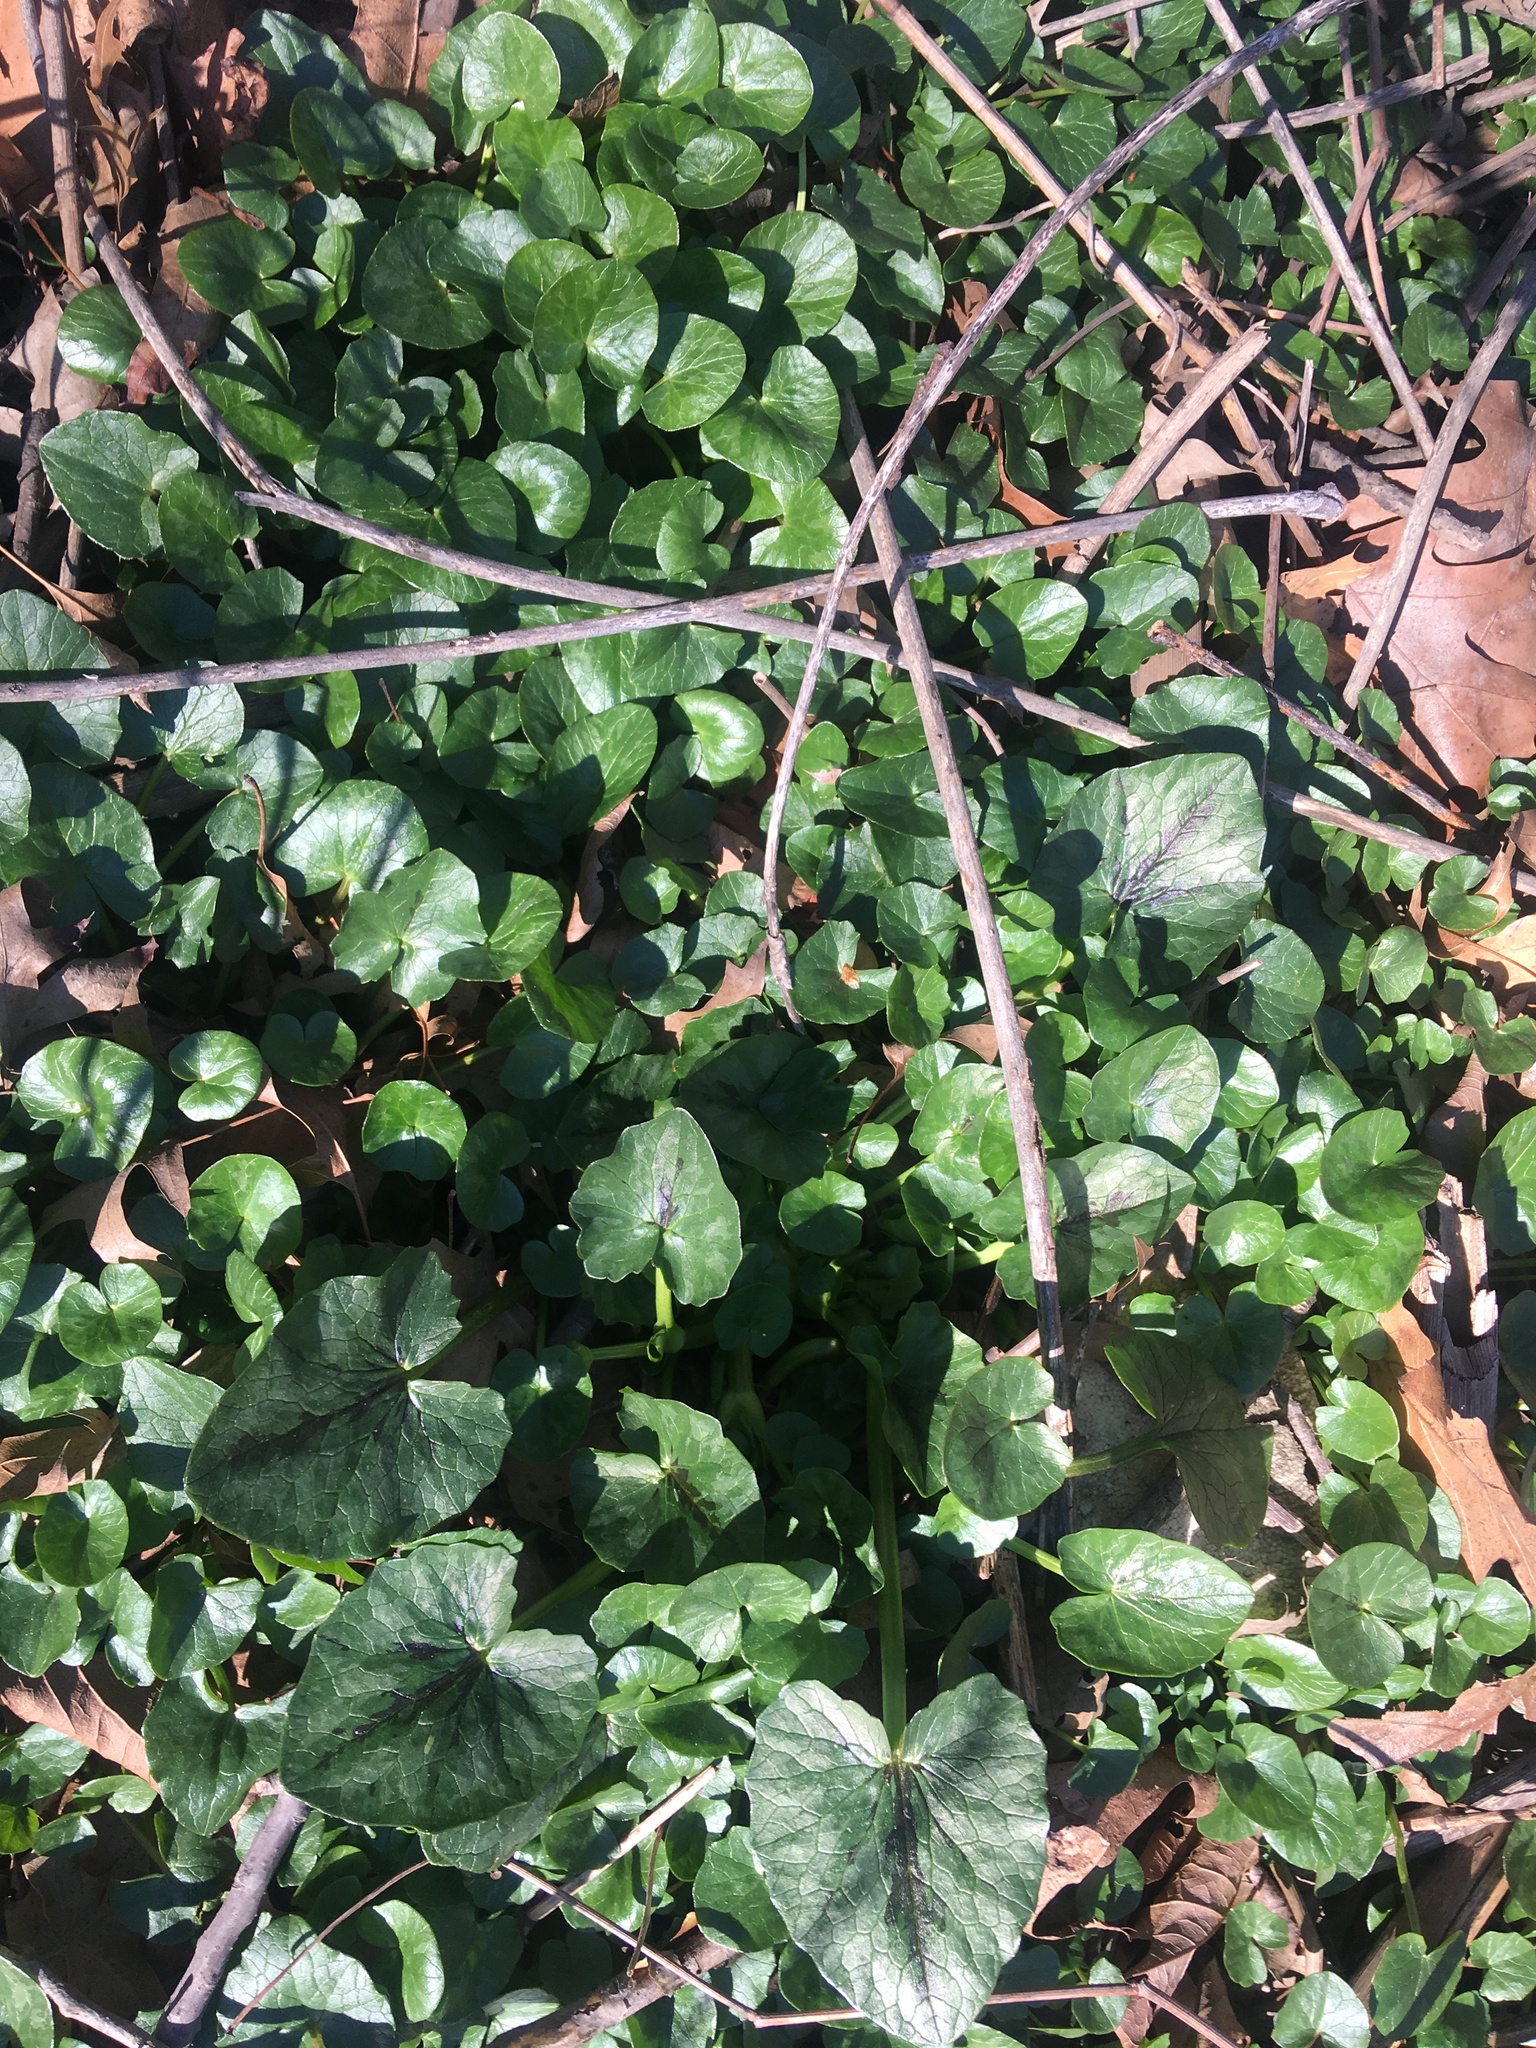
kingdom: Plantae
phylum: Tracheophyta
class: Magnoliopsida
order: Ranunculales
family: Ranunculaceae
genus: Ficaria
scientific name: Ficaria verna
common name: Lesser celandine
